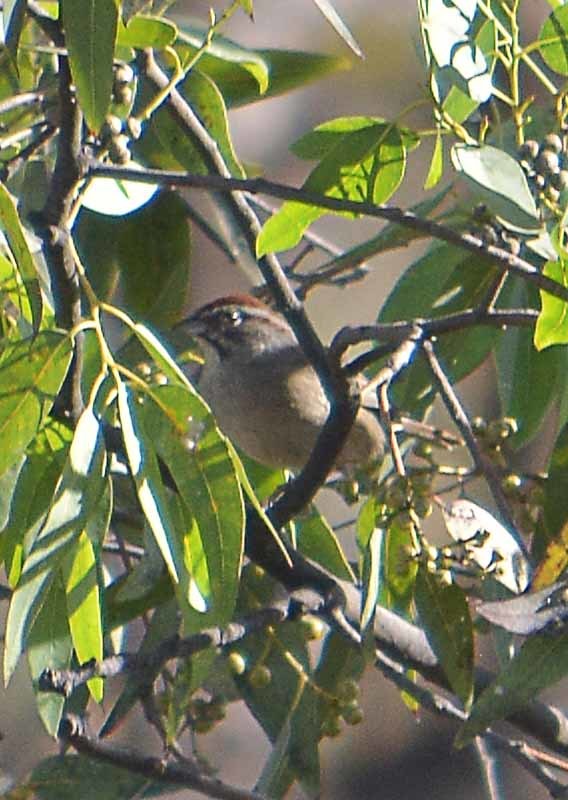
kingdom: Animalia
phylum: Chordata
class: Aves
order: Passeriformes
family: Passerellidae
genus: Aimophila
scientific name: Aimophila ruficeps
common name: Rufous-crowned sparrow
